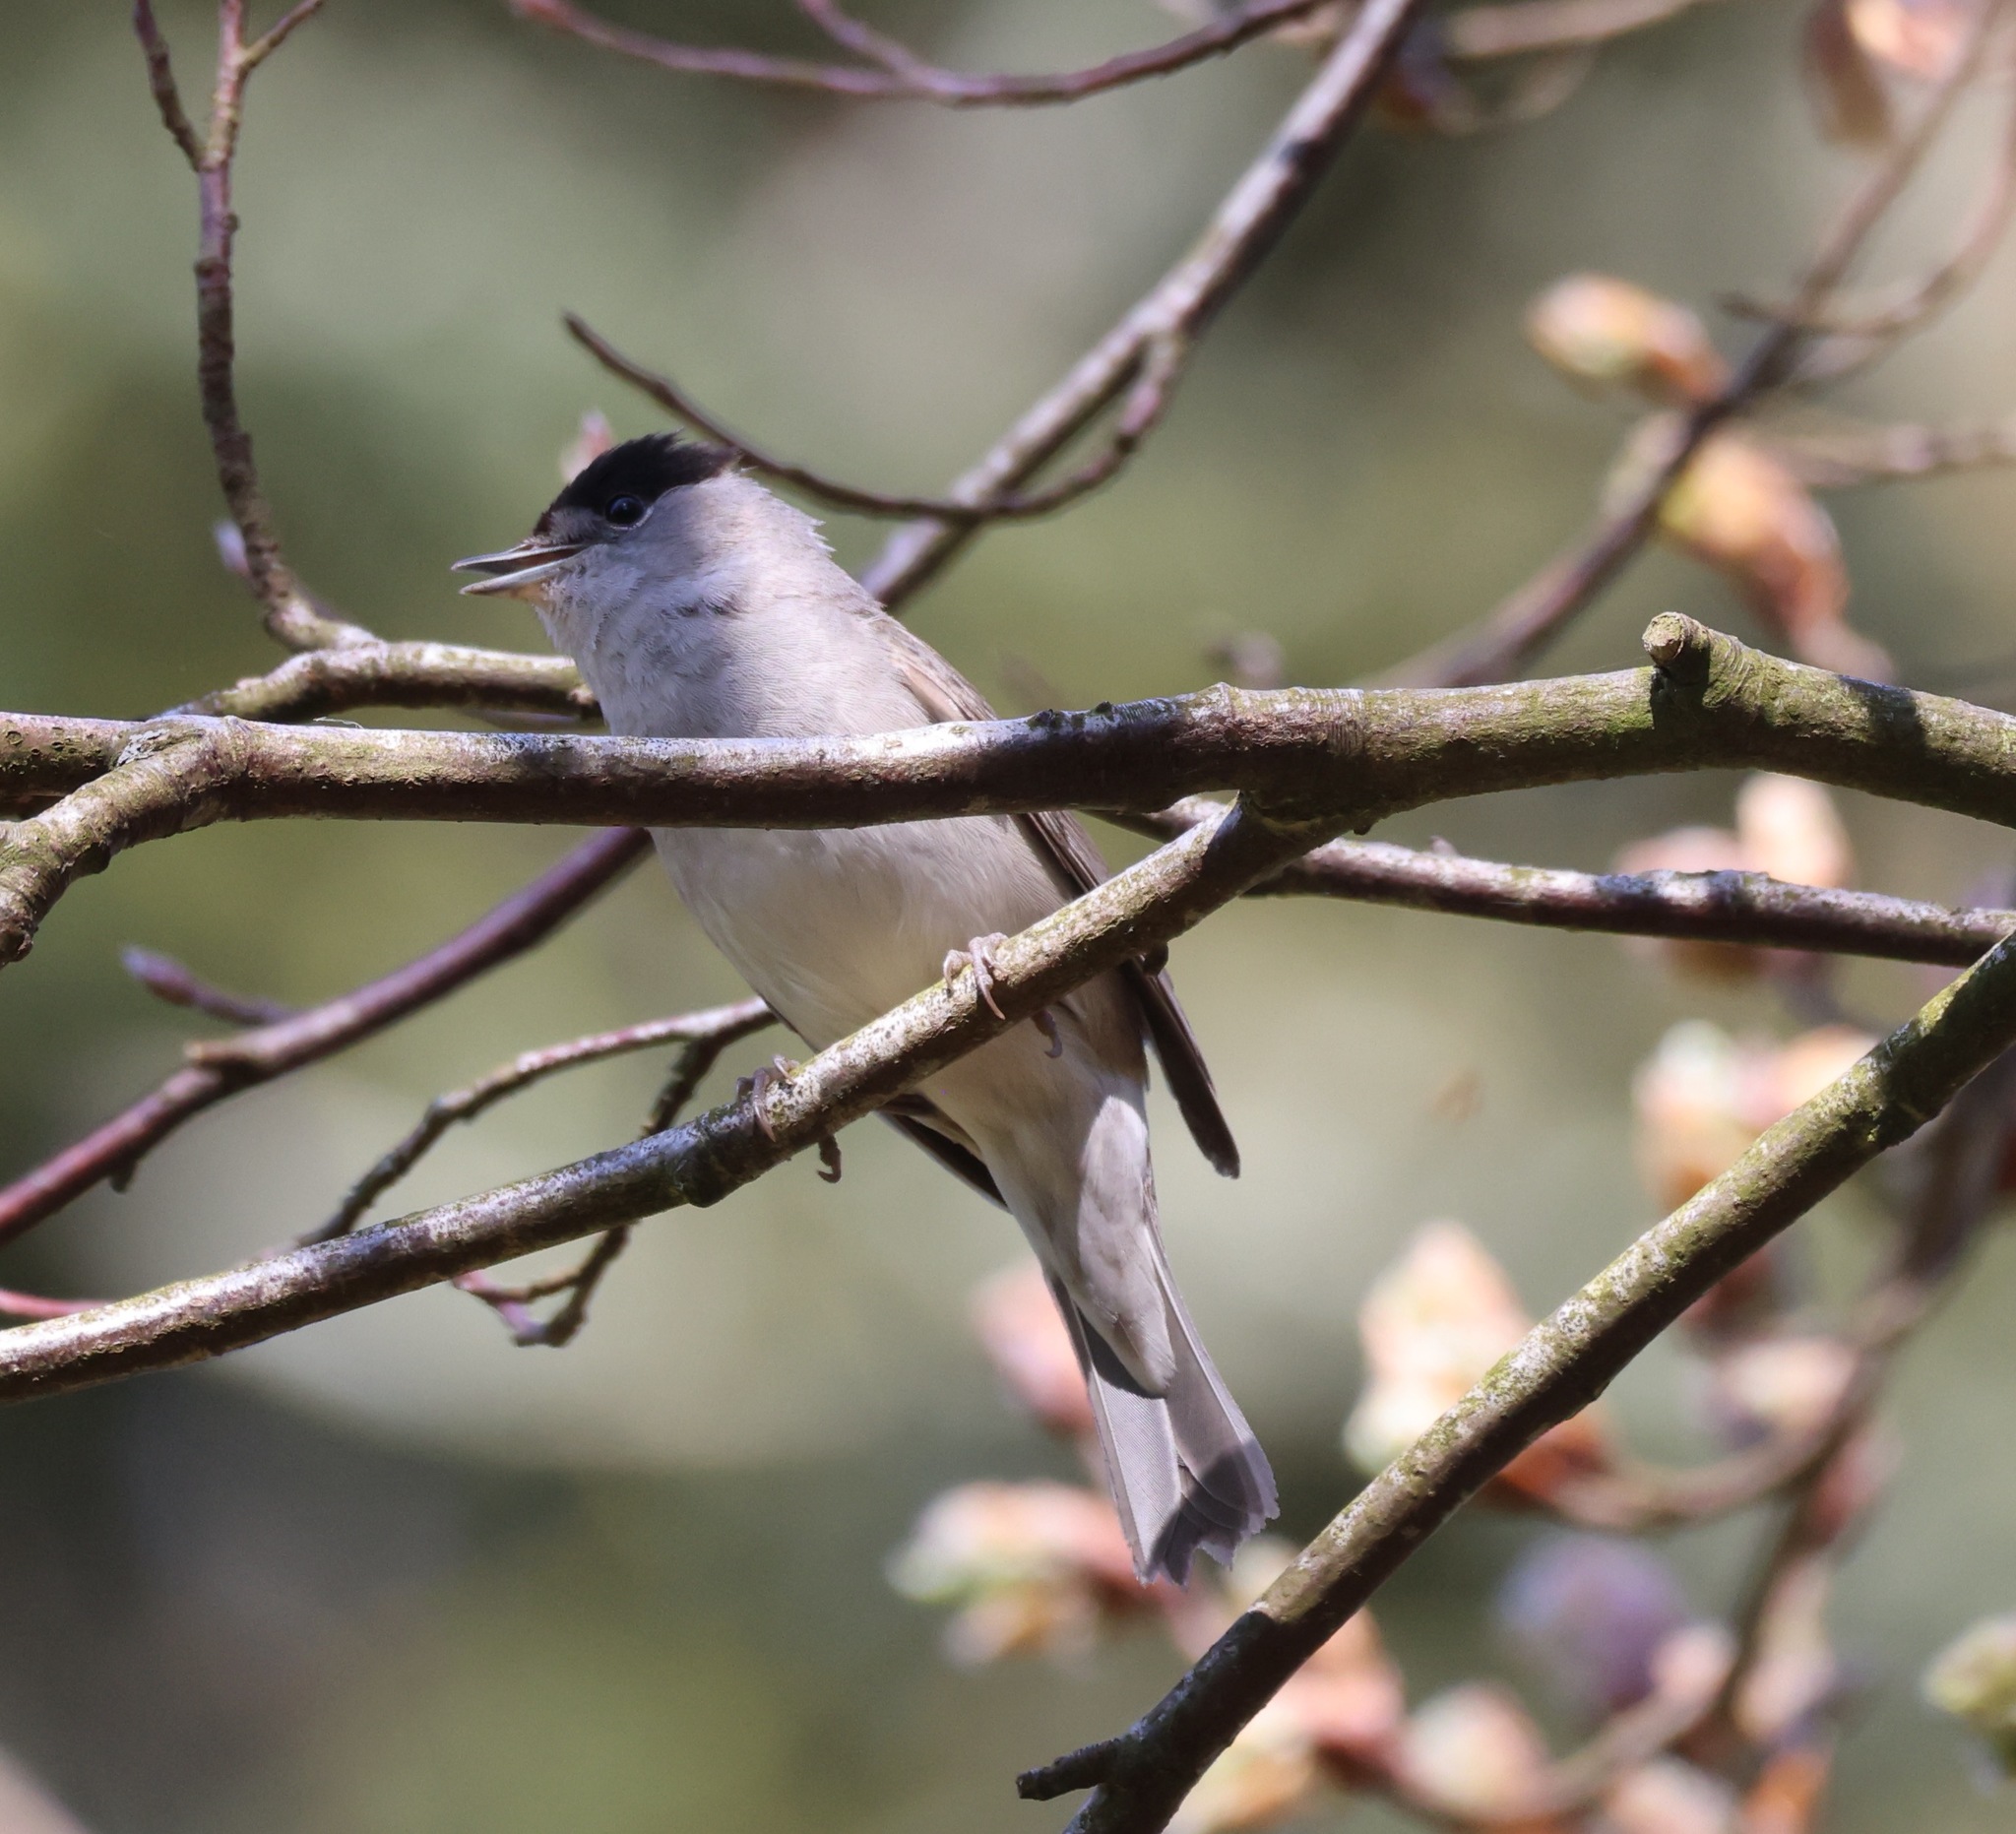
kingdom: Animalia
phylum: Chordata
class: Aves
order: Passeriformes
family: Sylviidae
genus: Sylvia
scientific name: Sylvia atricapilla
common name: Eurasian blackcap
